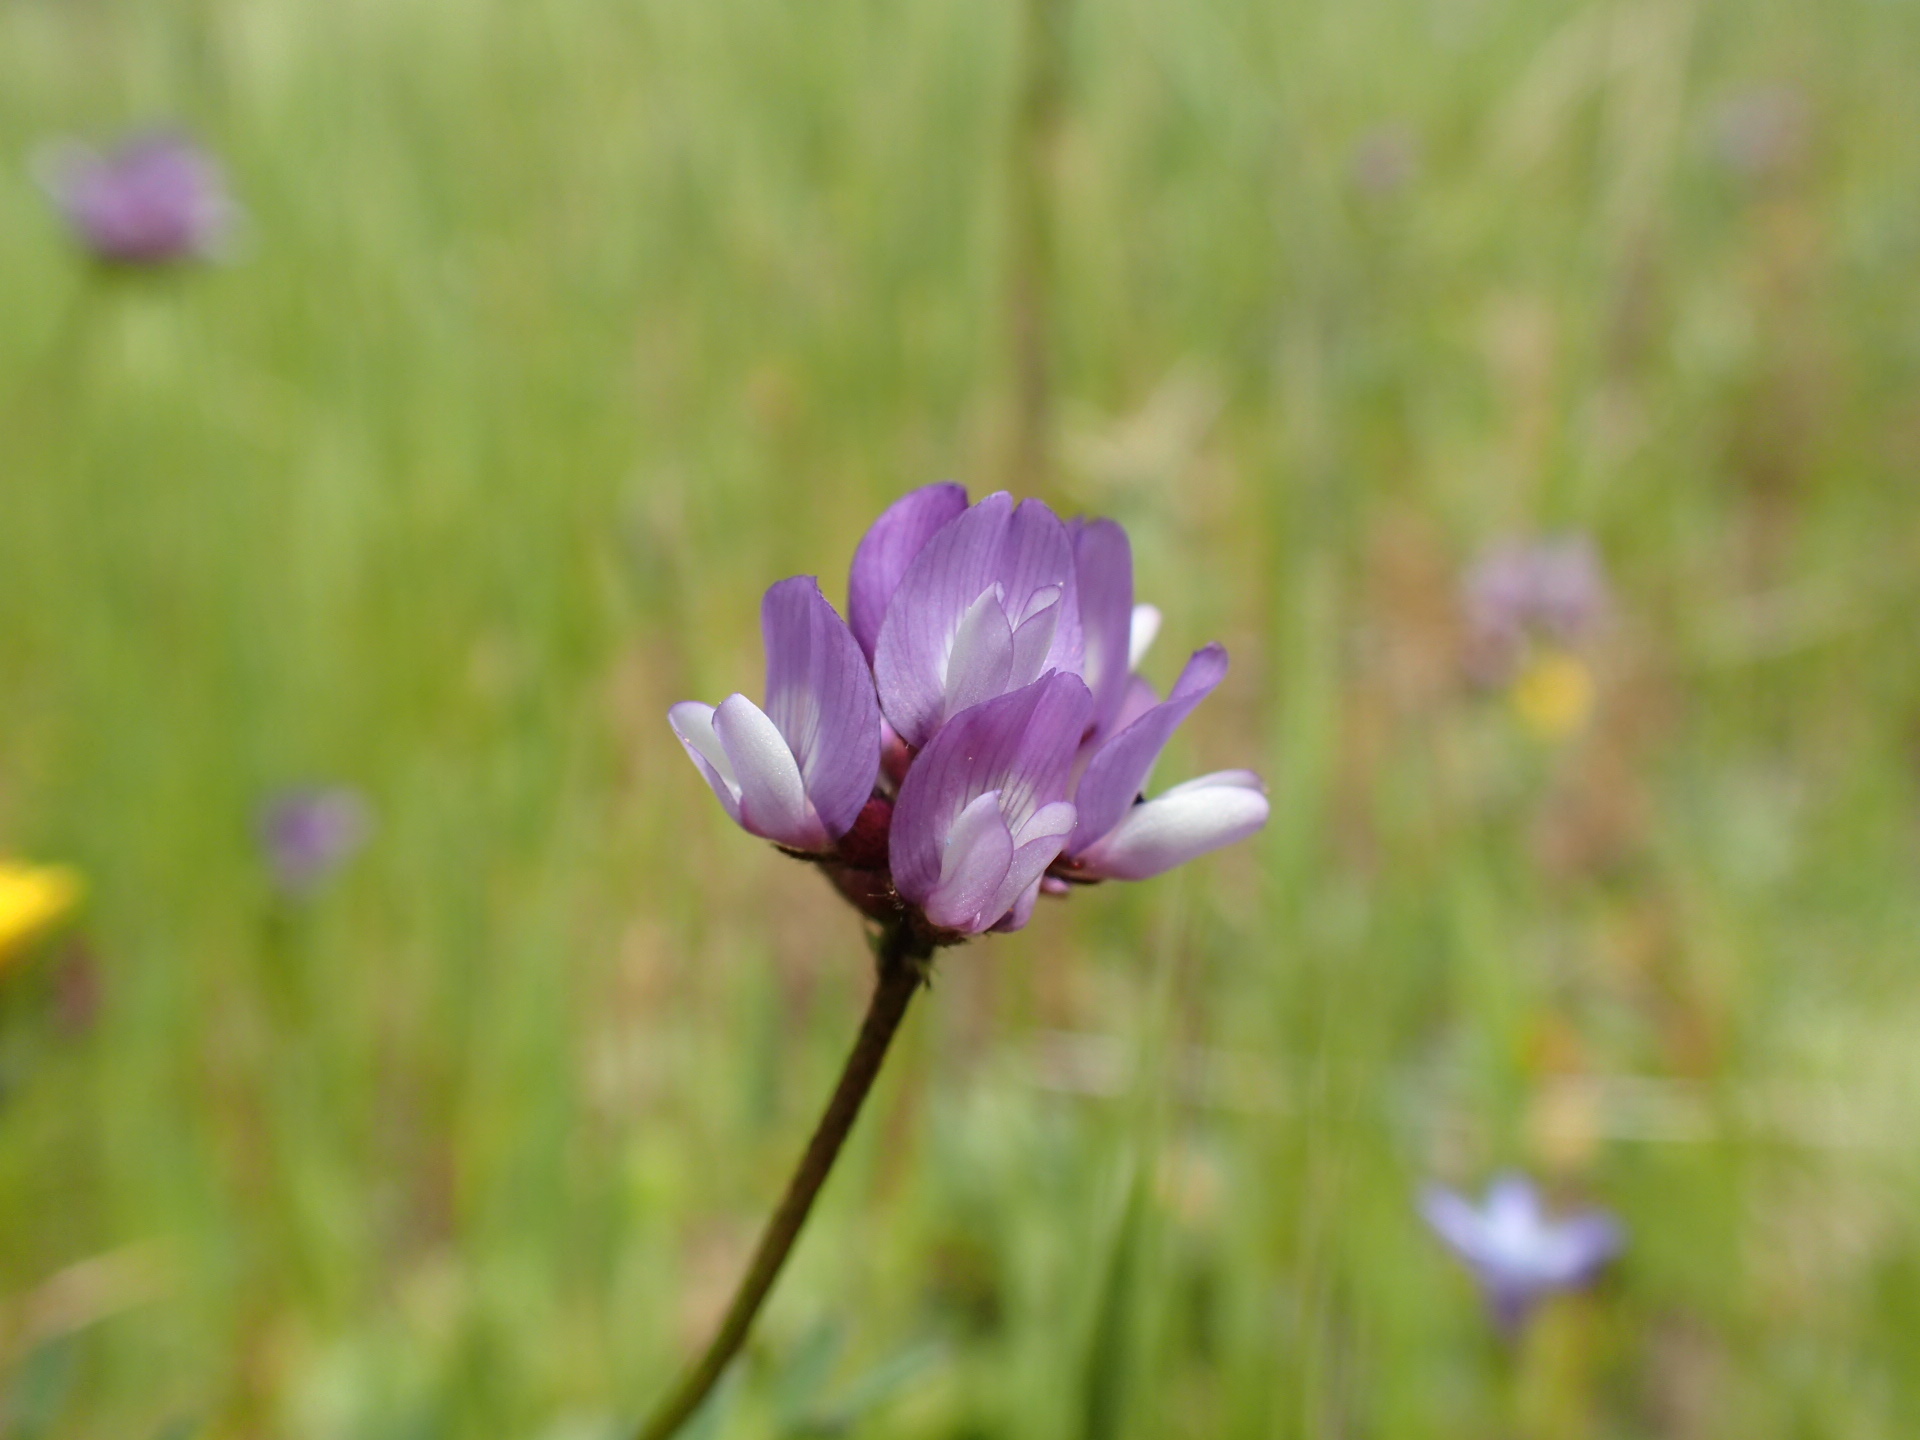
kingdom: Plantae
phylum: Tracheophyta
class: Magnoliopsida
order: Fabales
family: Fabaceae
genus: Astragalus
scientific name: Astragalus gambelianus
